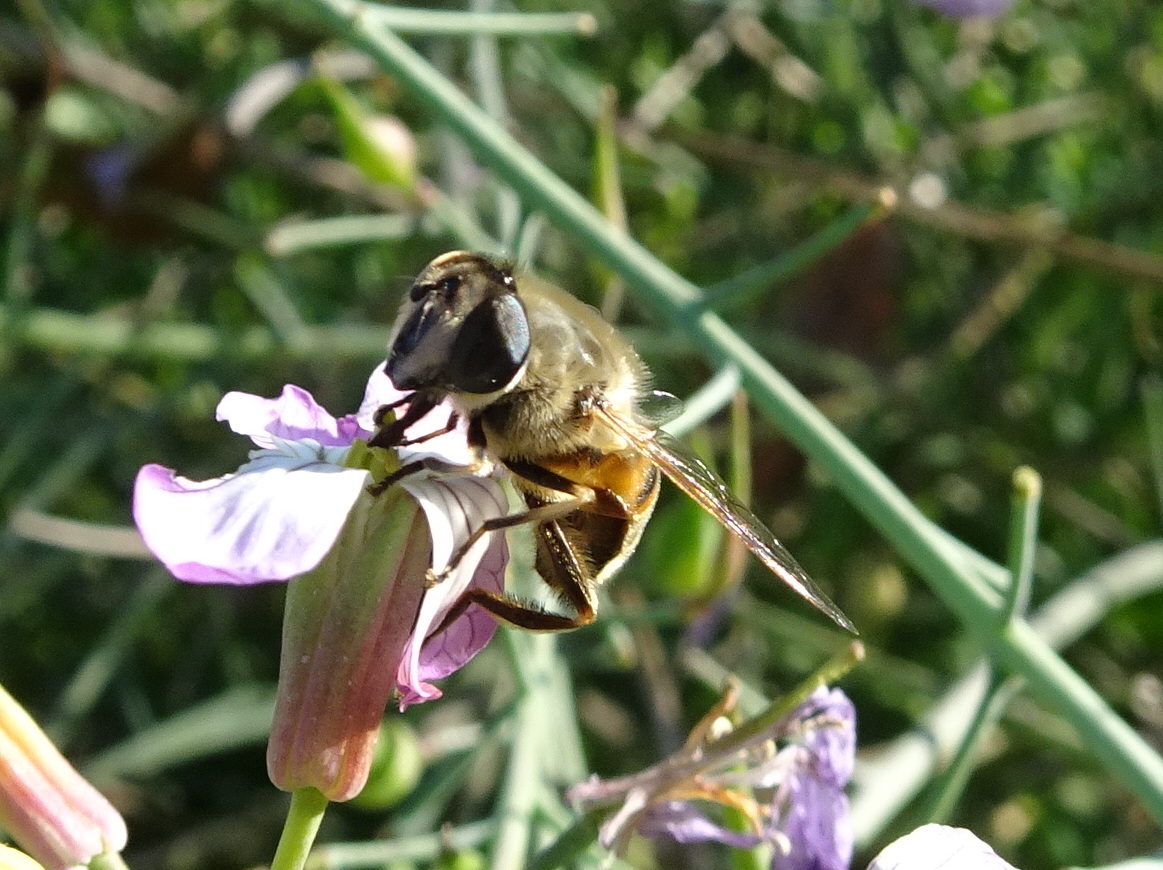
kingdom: Animalia
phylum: Arthropoda
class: Insecta
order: Diptera
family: Syrphidae
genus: Paragus
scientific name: Paragus haemorrhous
